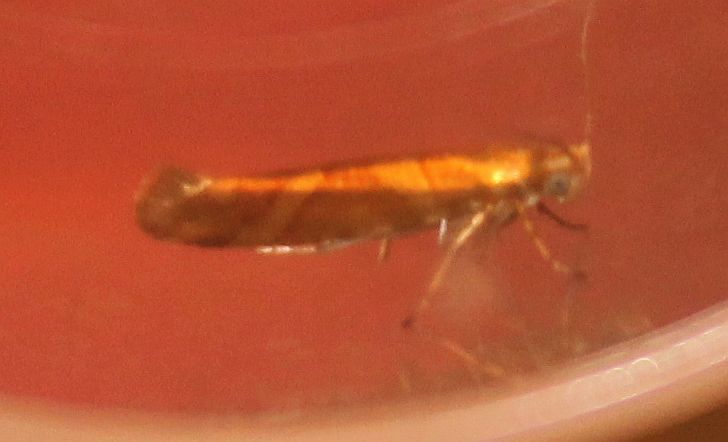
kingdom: Animalia
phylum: Arthropoda
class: Insecta
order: Lepidoptera
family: Argyresthiidae
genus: Argyresthia
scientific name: Argyresthia goedartella
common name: Golden argent
